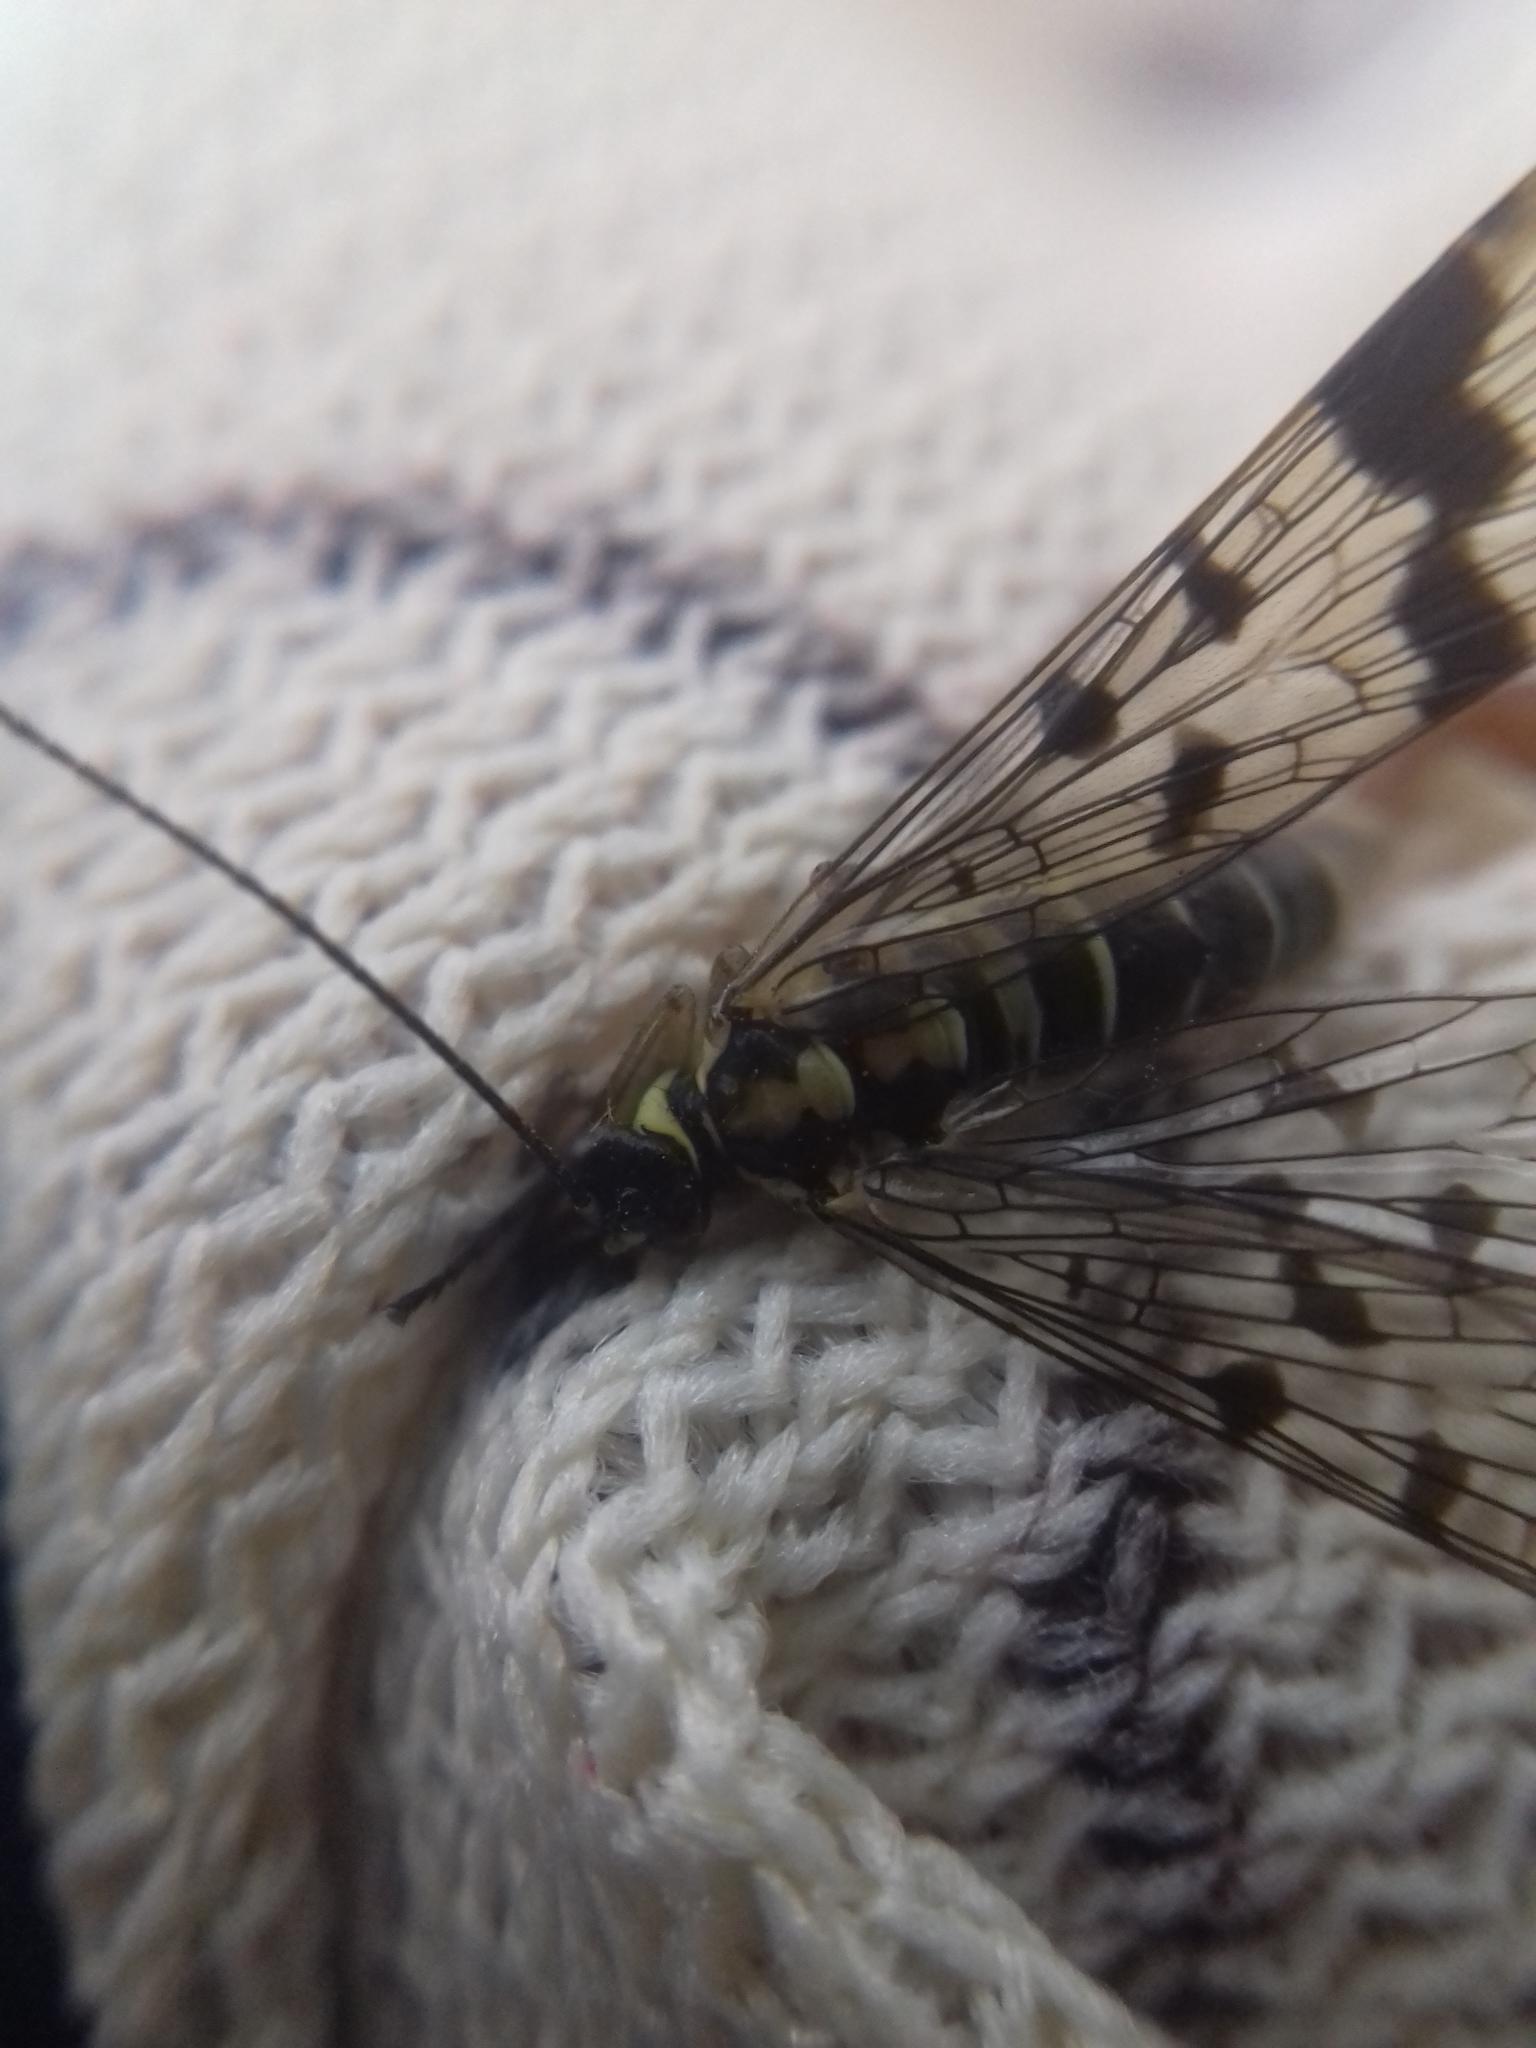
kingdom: Animalia
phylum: Arthropoda
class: Insecta
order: Mecoptera
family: Panorpidae
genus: Panorpa
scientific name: Panorpa communis
